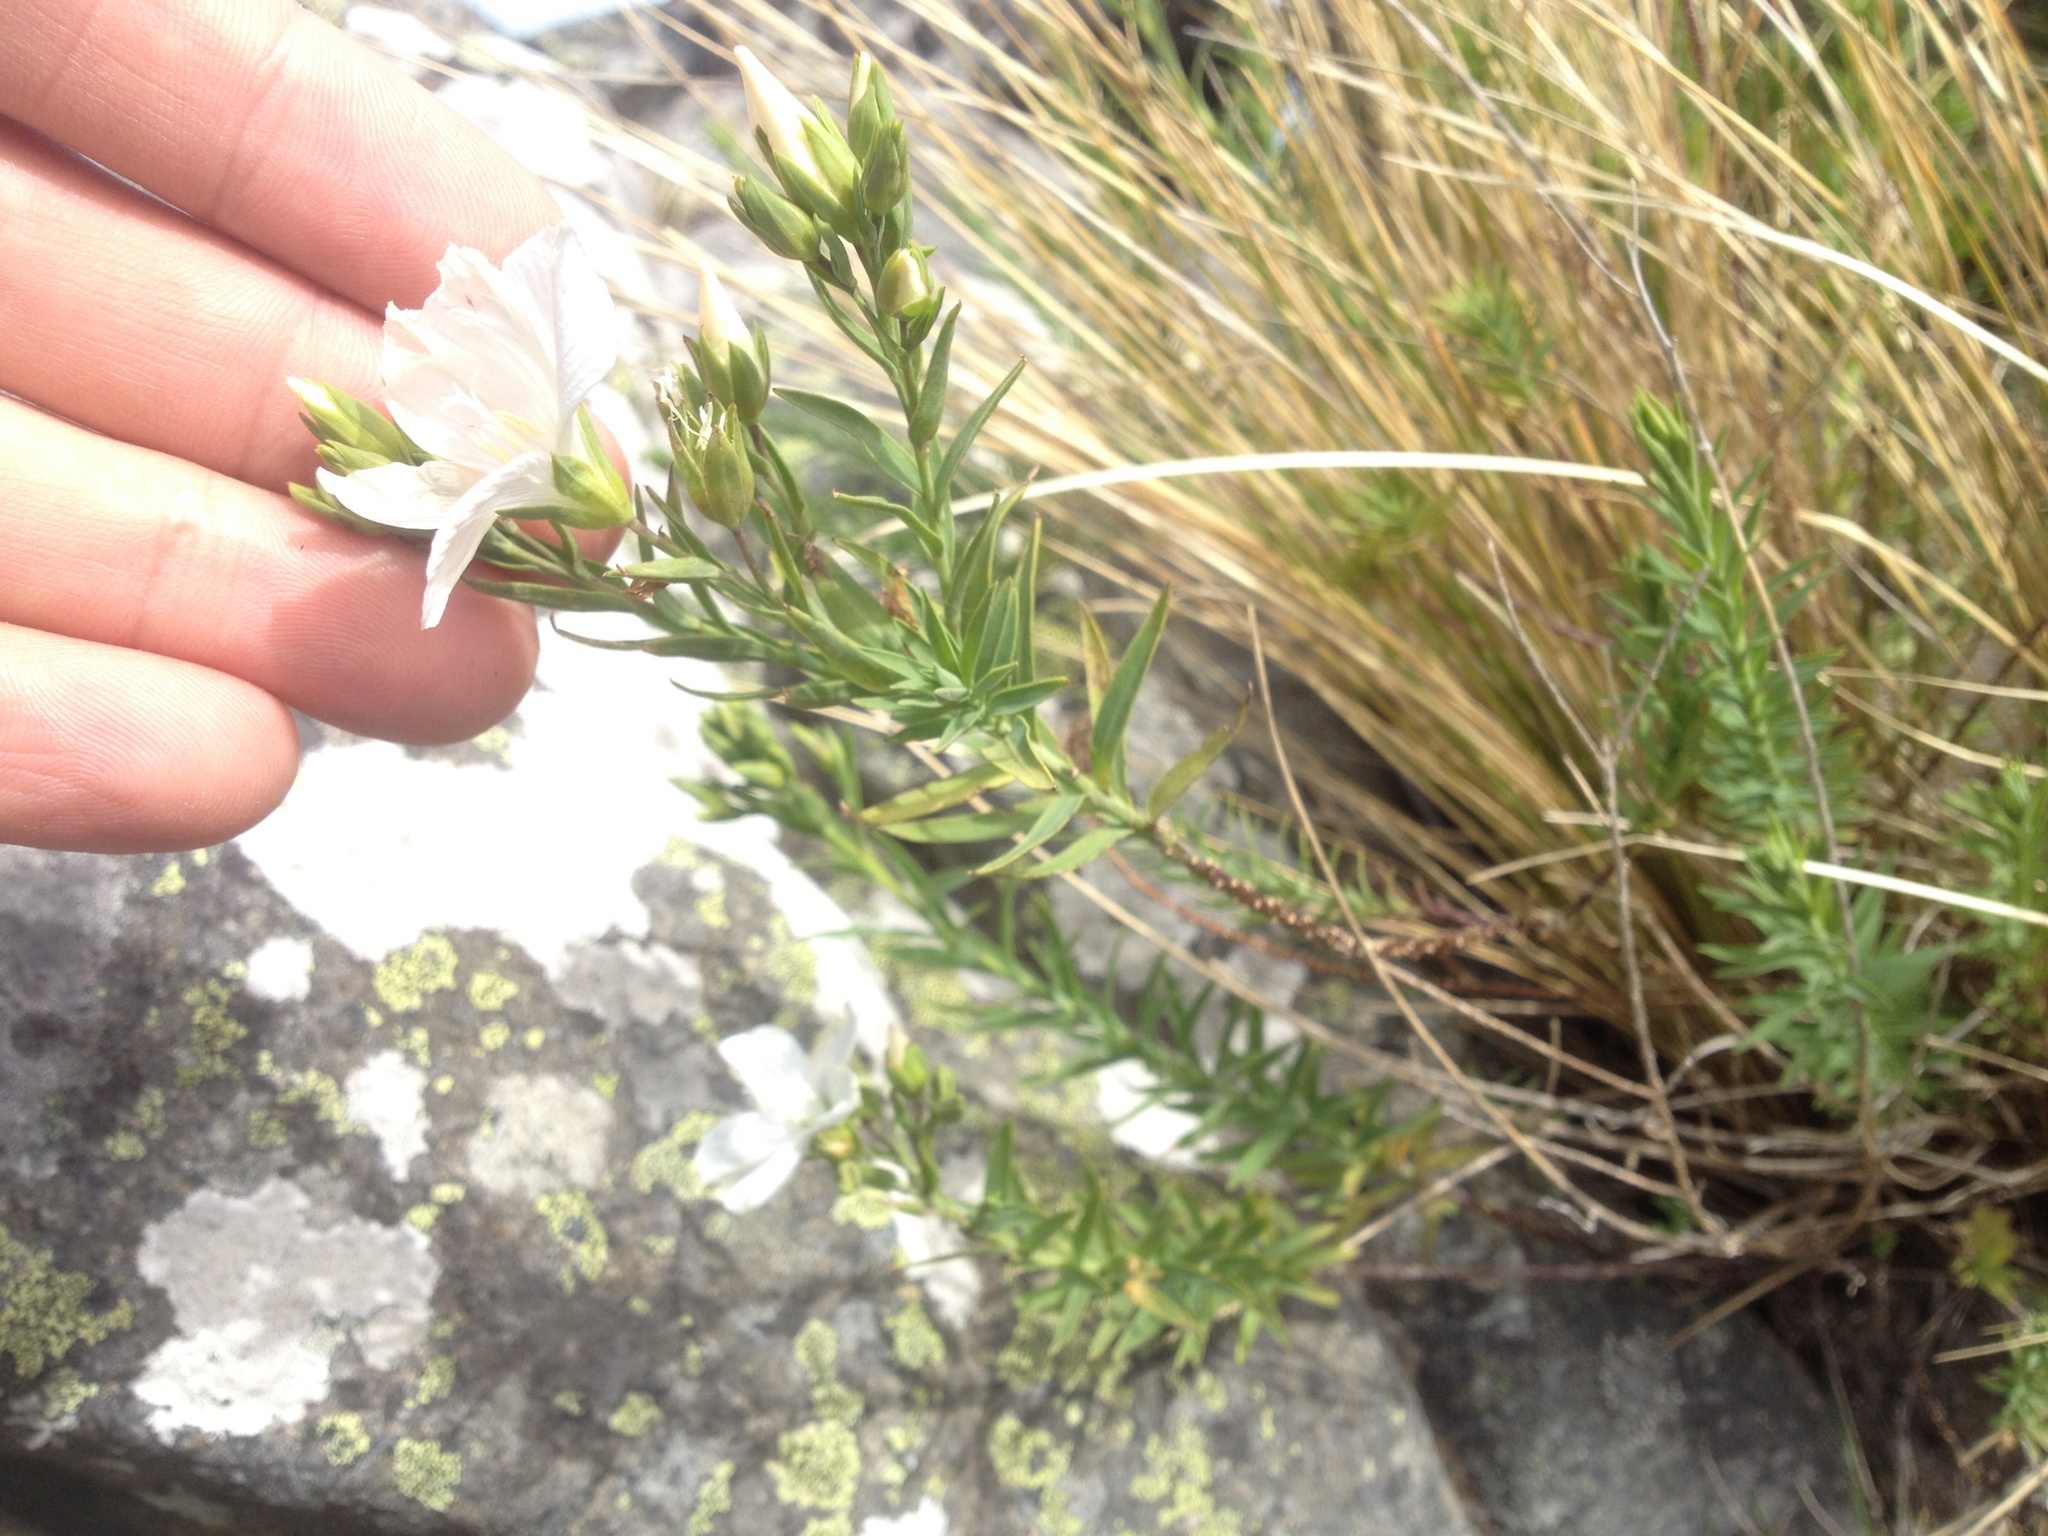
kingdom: Plantae
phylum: Tracheophyta
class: Magnoliopsida
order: Malpighiales
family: Linaceae
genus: Linum
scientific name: Linum monogynum
